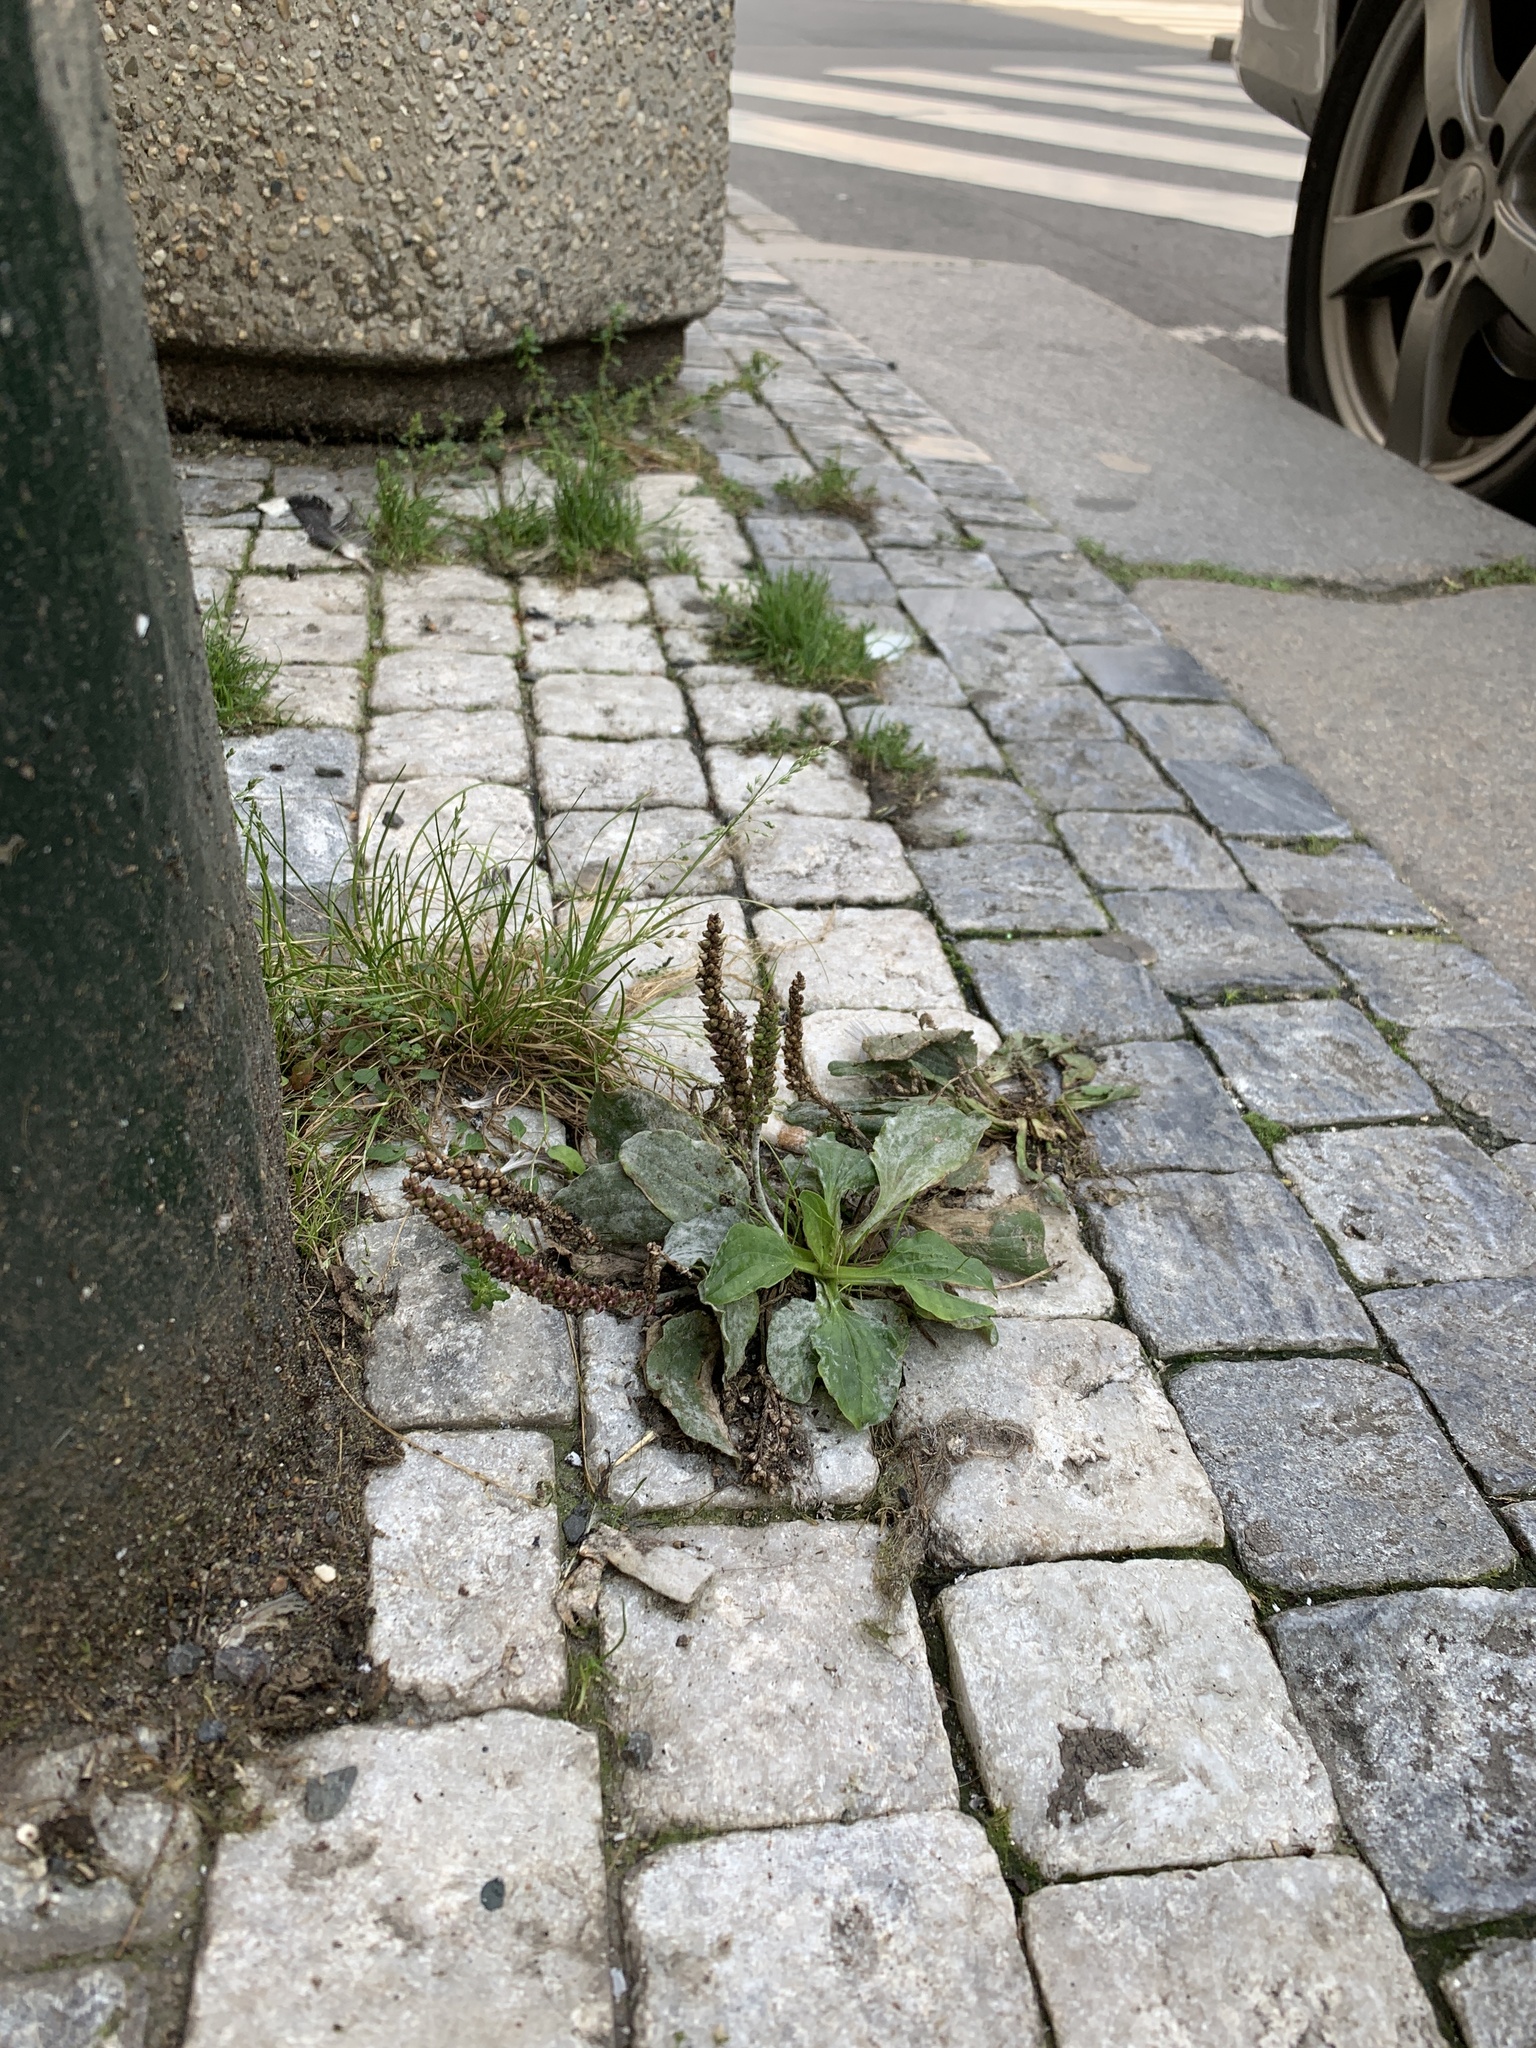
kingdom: Plantae
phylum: Tracheophyta
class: Magnoliopsida
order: Lamiales
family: Plantaginaceae
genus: Plantago
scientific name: Plantago major
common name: Common plantain
